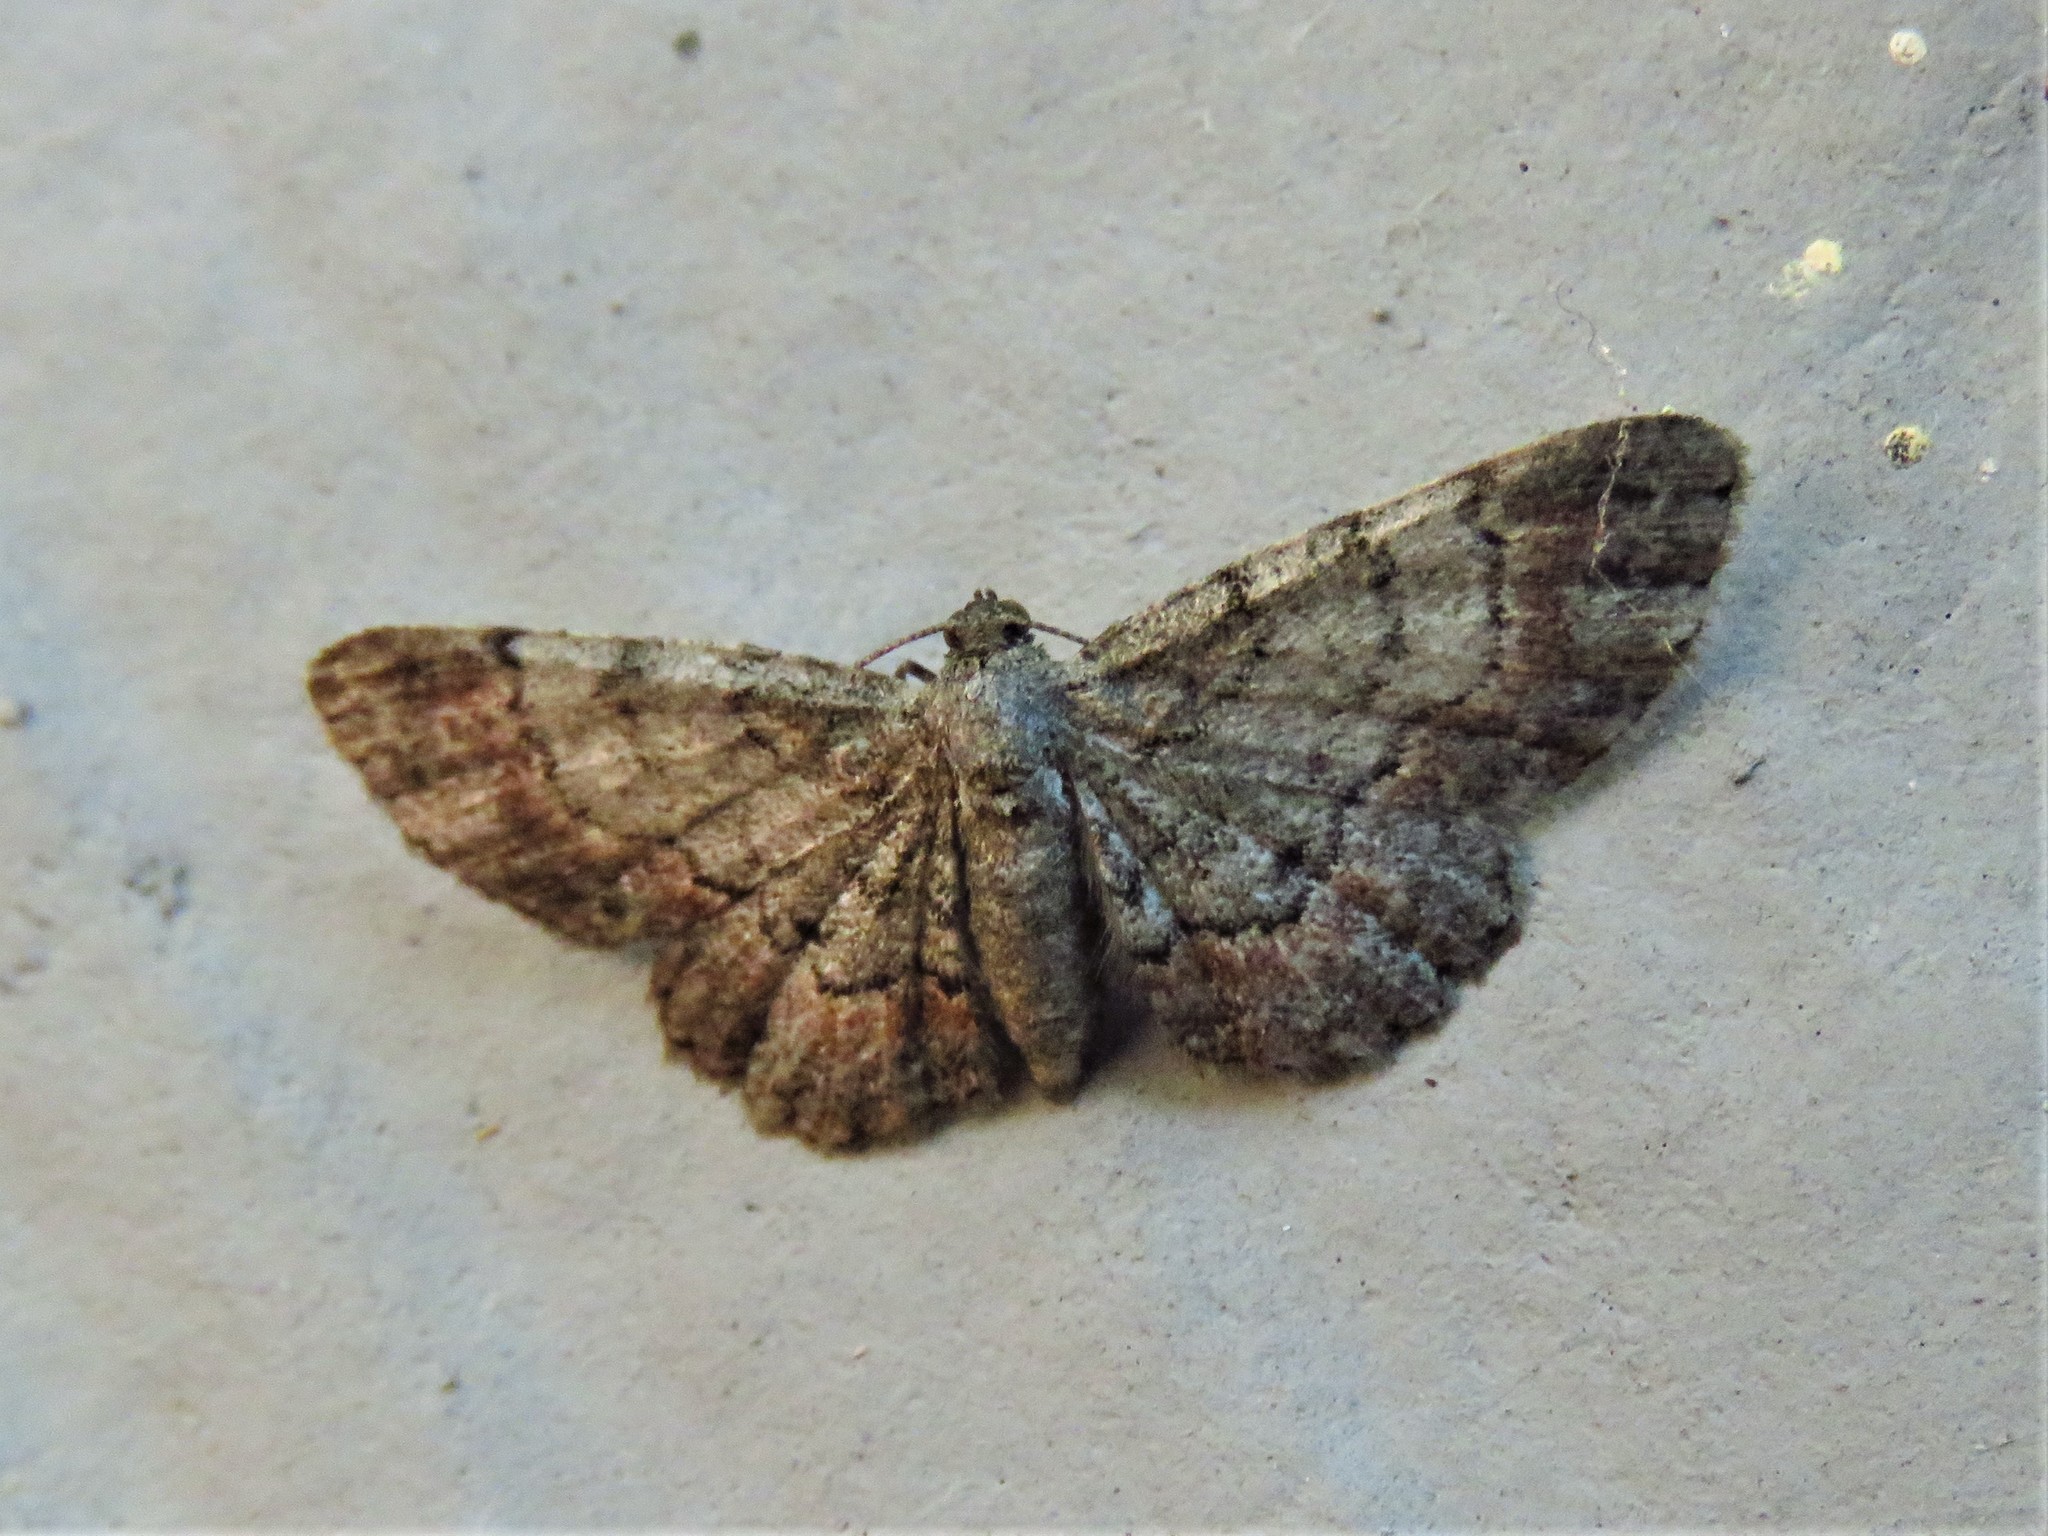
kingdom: Animalia
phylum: Arthropoda
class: Insecta
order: Lepidoptera
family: Geometridae
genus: Glenoides
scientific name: Glenoides texanaria
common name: Texas gray
